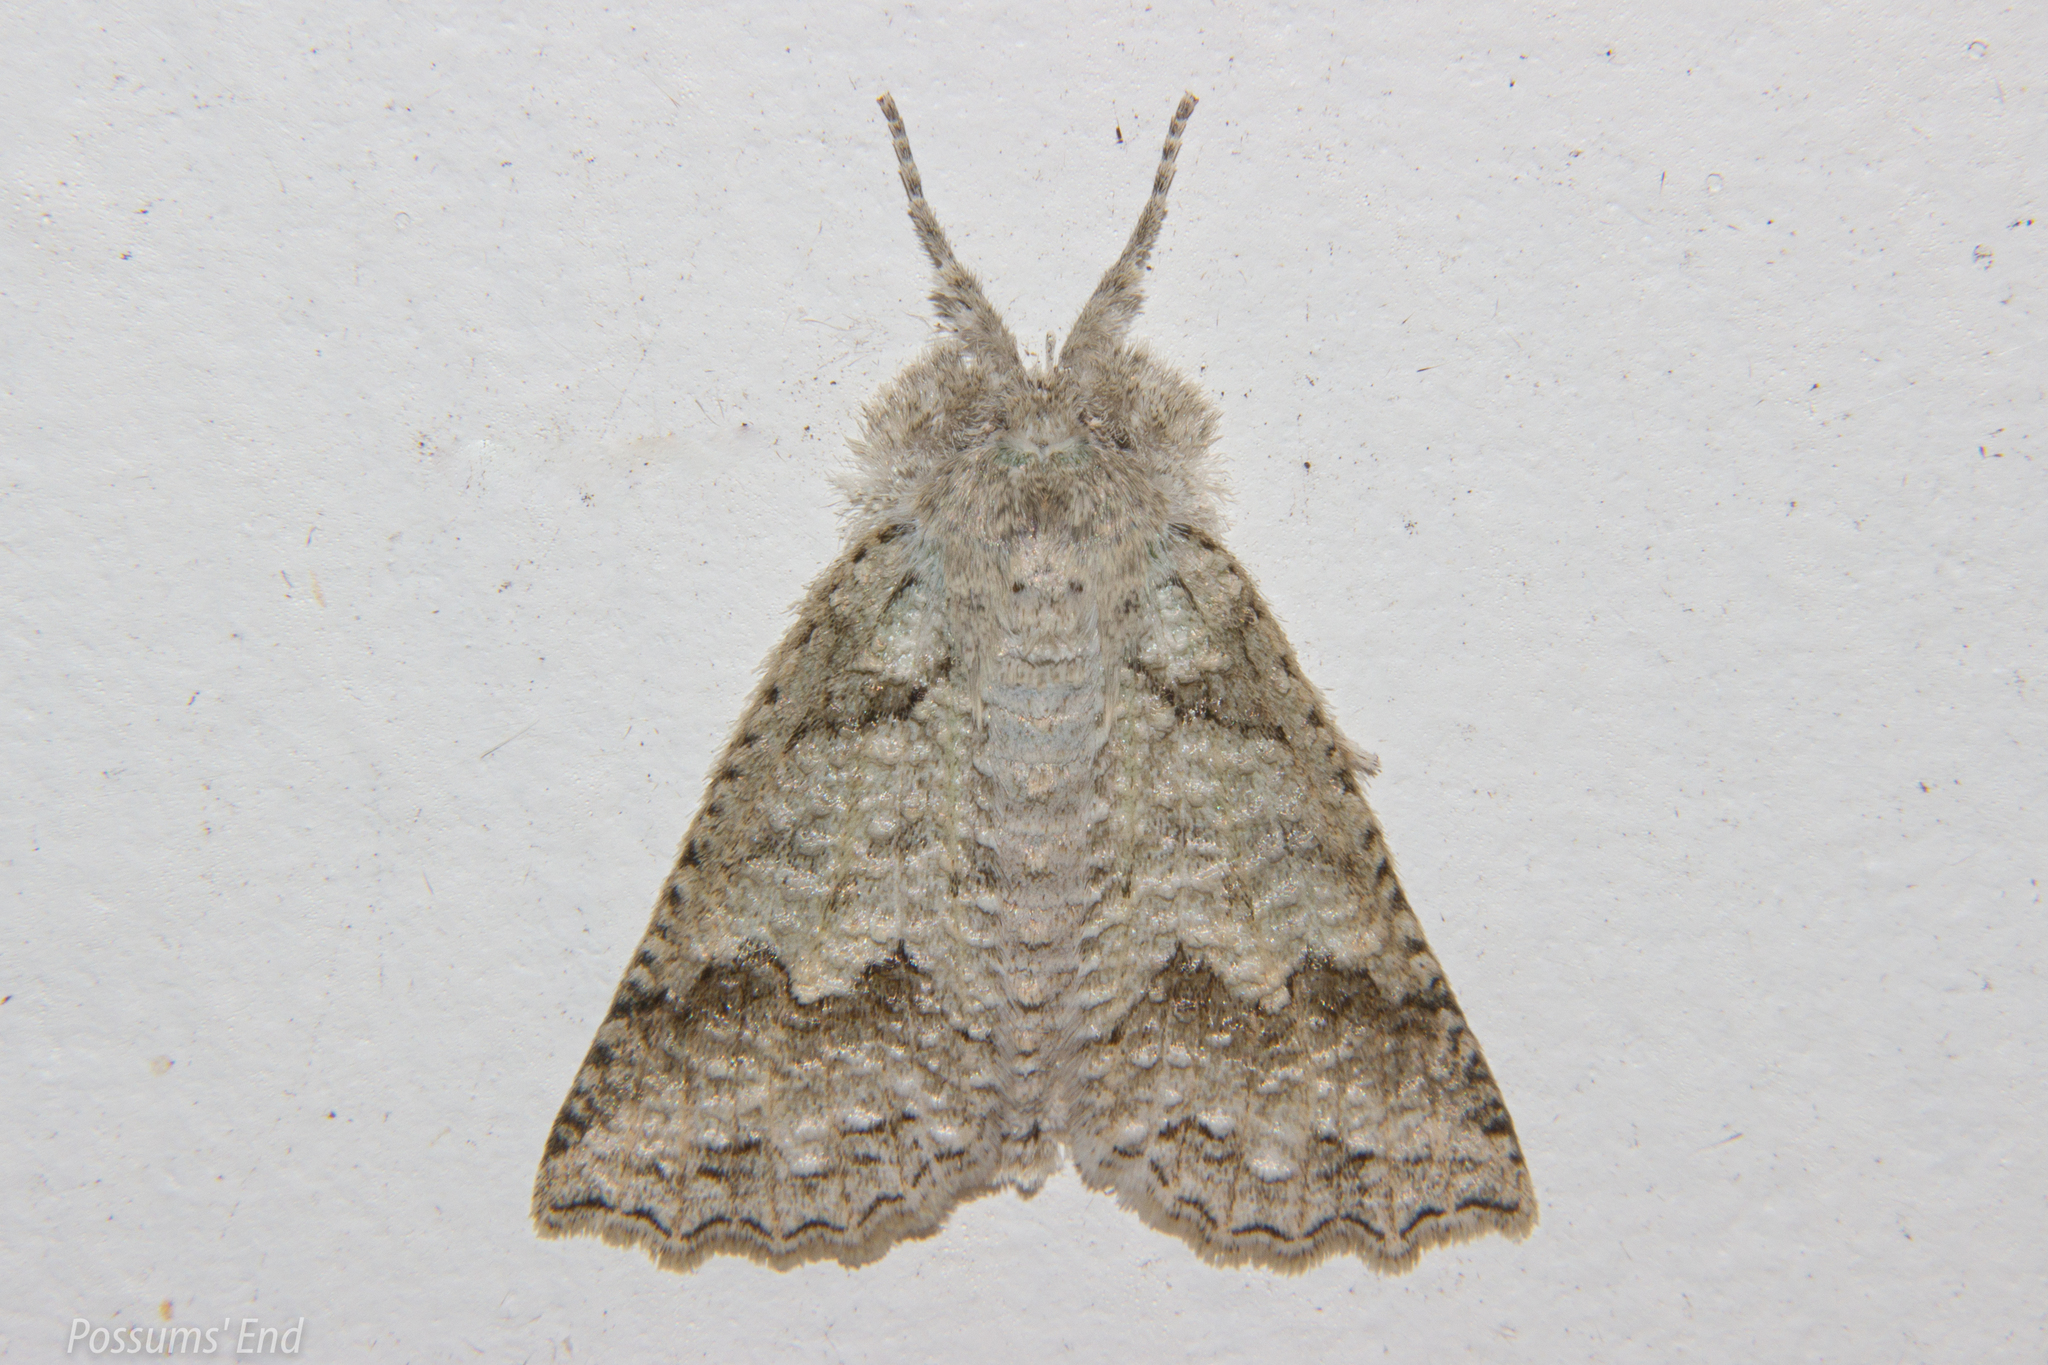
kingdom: Animalia
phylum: Arthropoda
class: Insecta
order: Lepidoptera
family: Geometridae
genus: Declana
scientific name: Declana niveata
